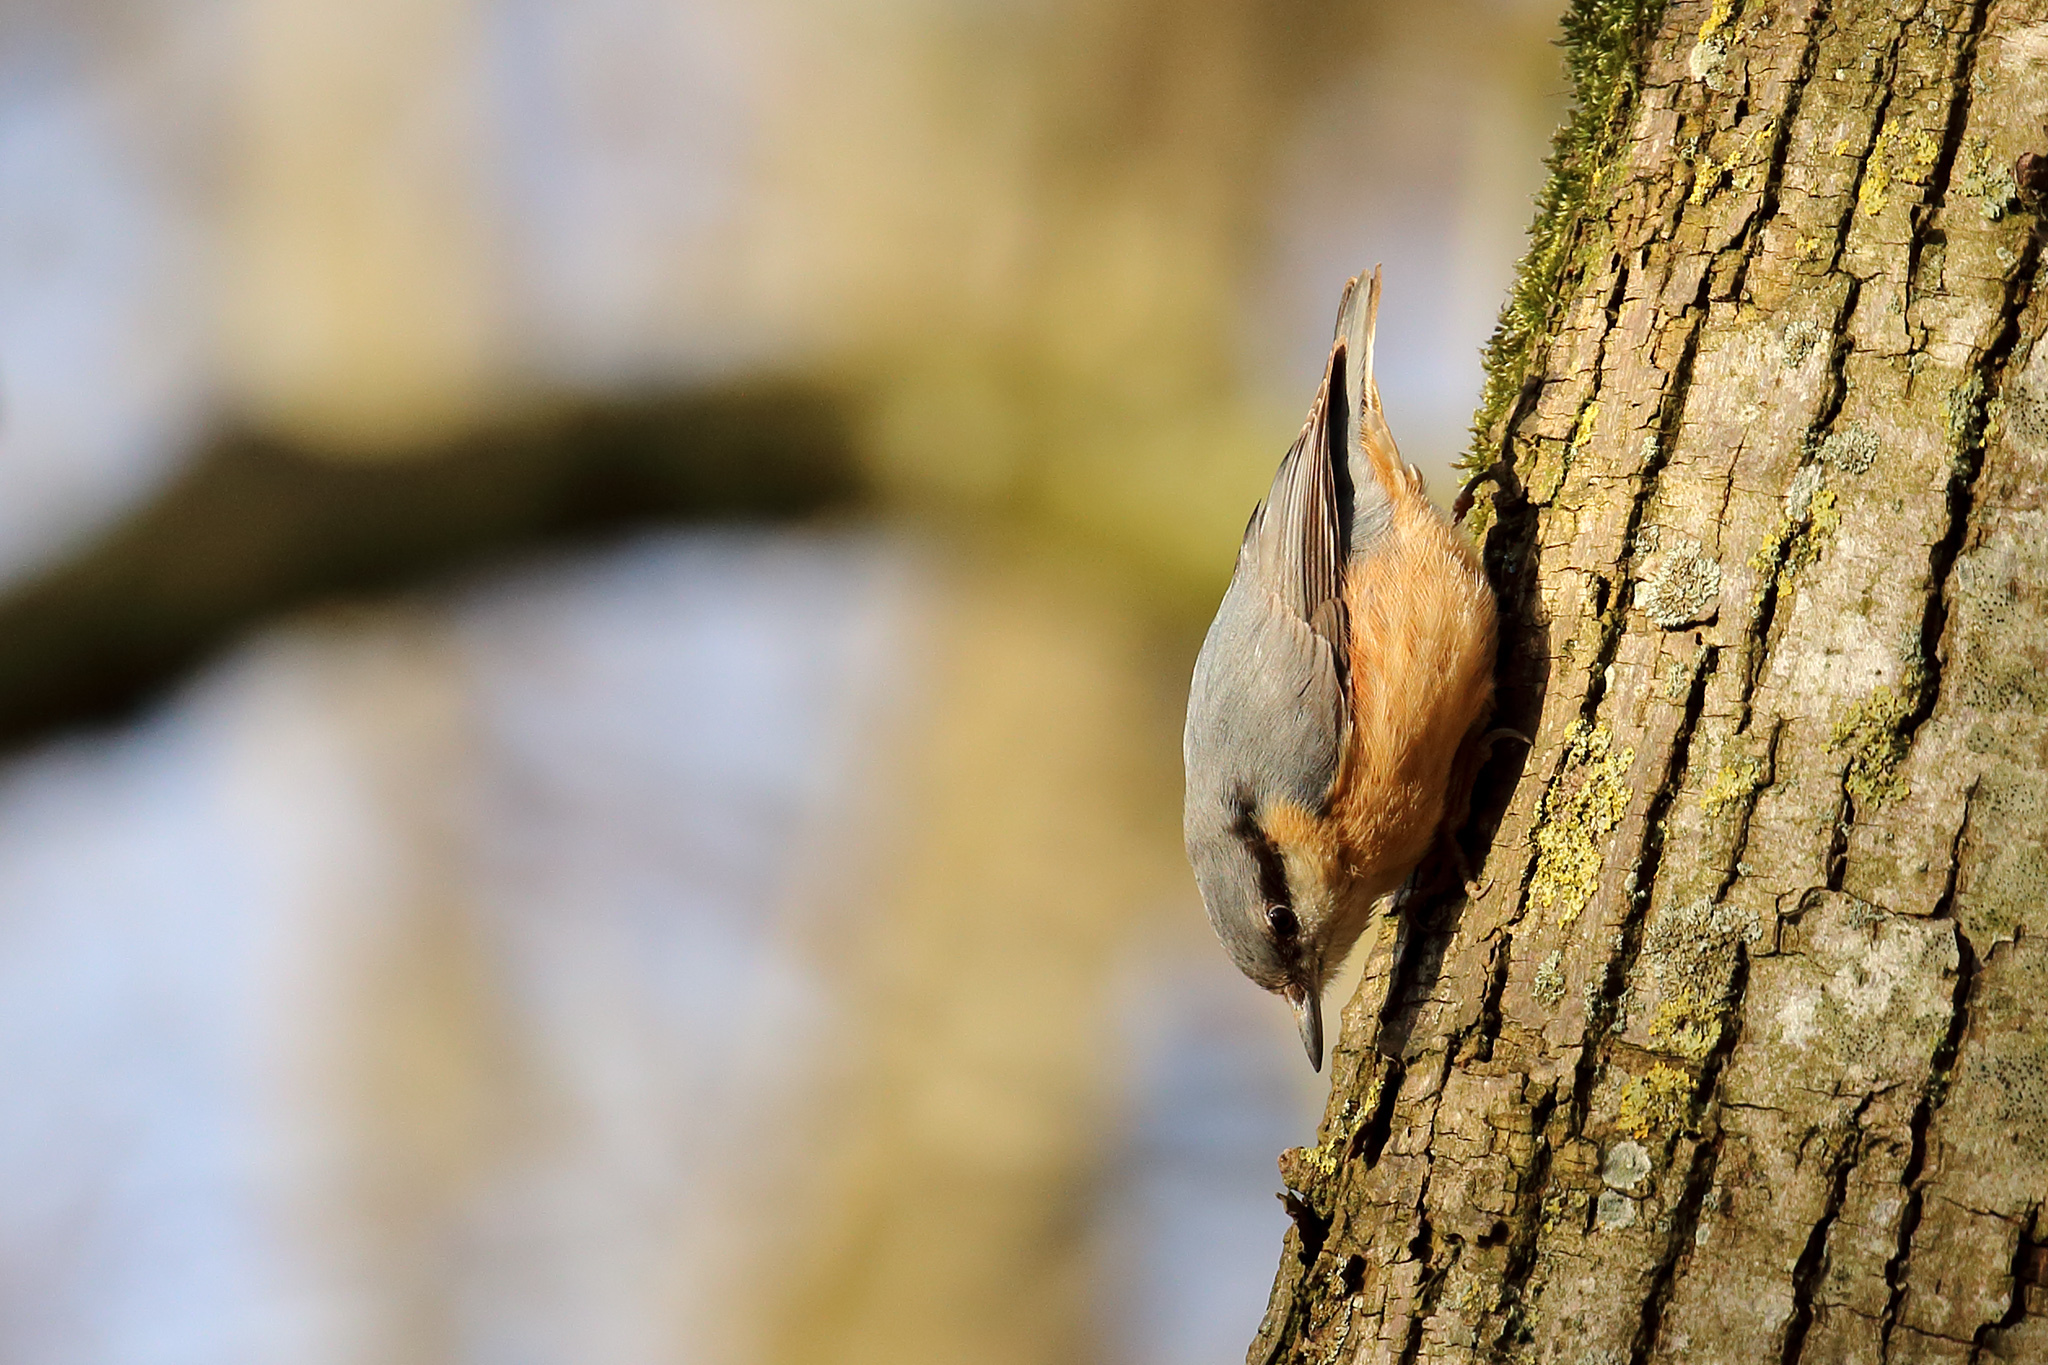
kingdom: Animalia
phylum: Chordata
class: Aves
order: Passeriformes
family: Sittidae
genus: Sitta
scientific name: Sitta europaea
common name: Eurasian nuthatch
